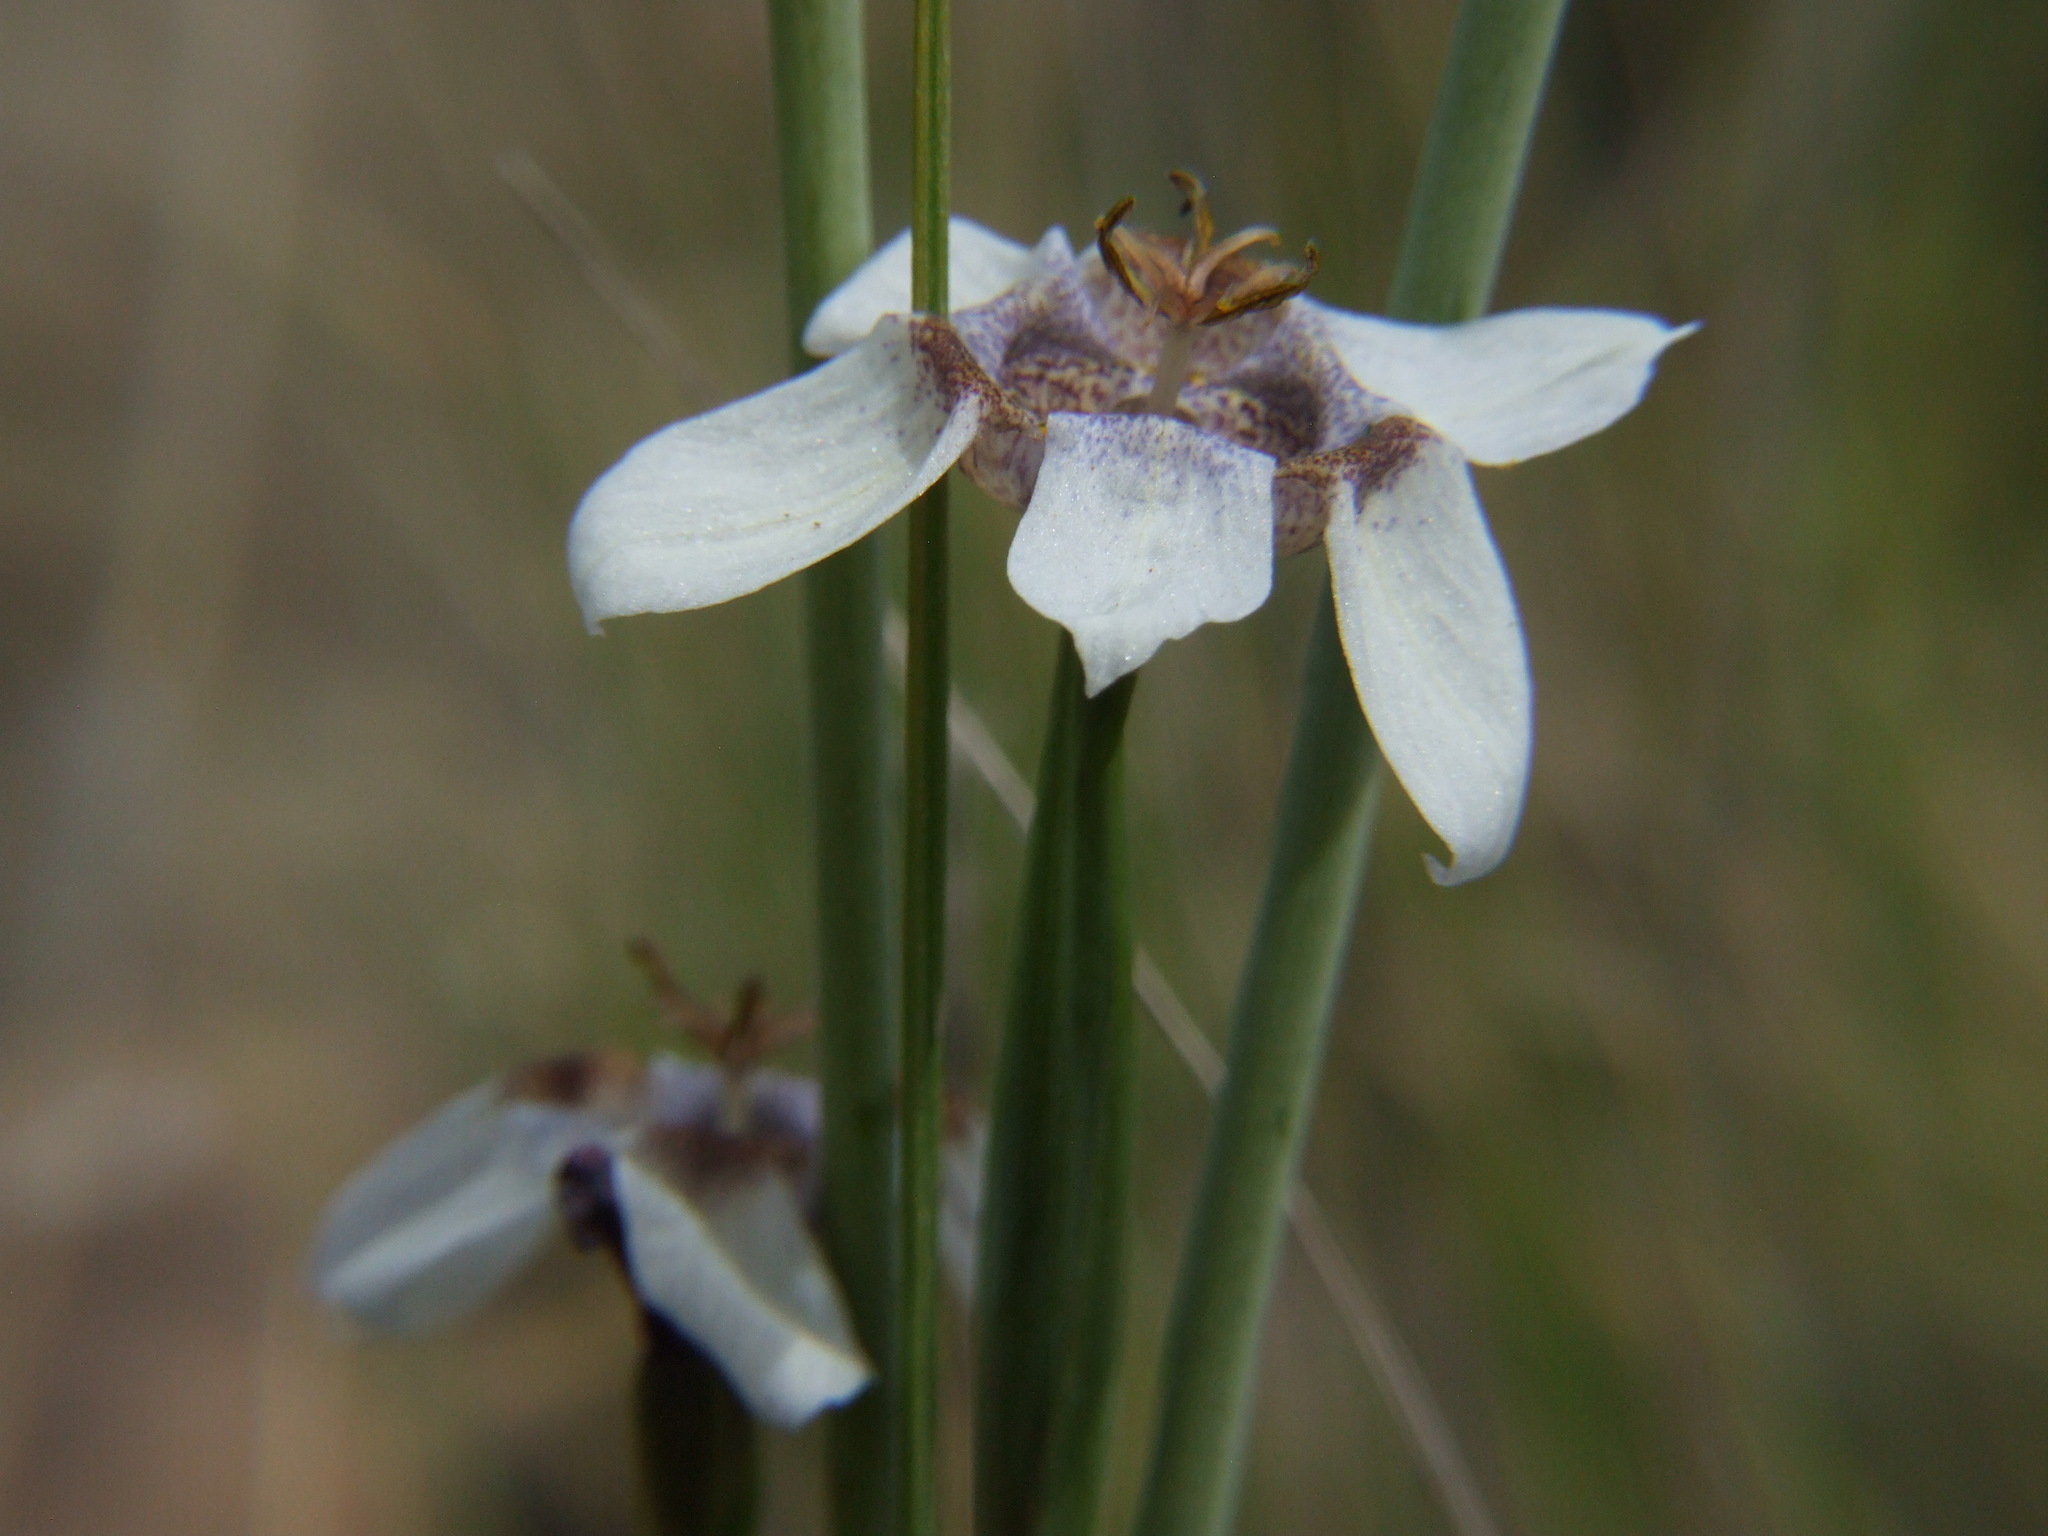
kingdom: Plantae
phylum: Tracheophyta
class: Liliopsida
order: Asparagales
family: Iridaceae
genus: Tigridia
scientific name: Tigridia arequipensis
